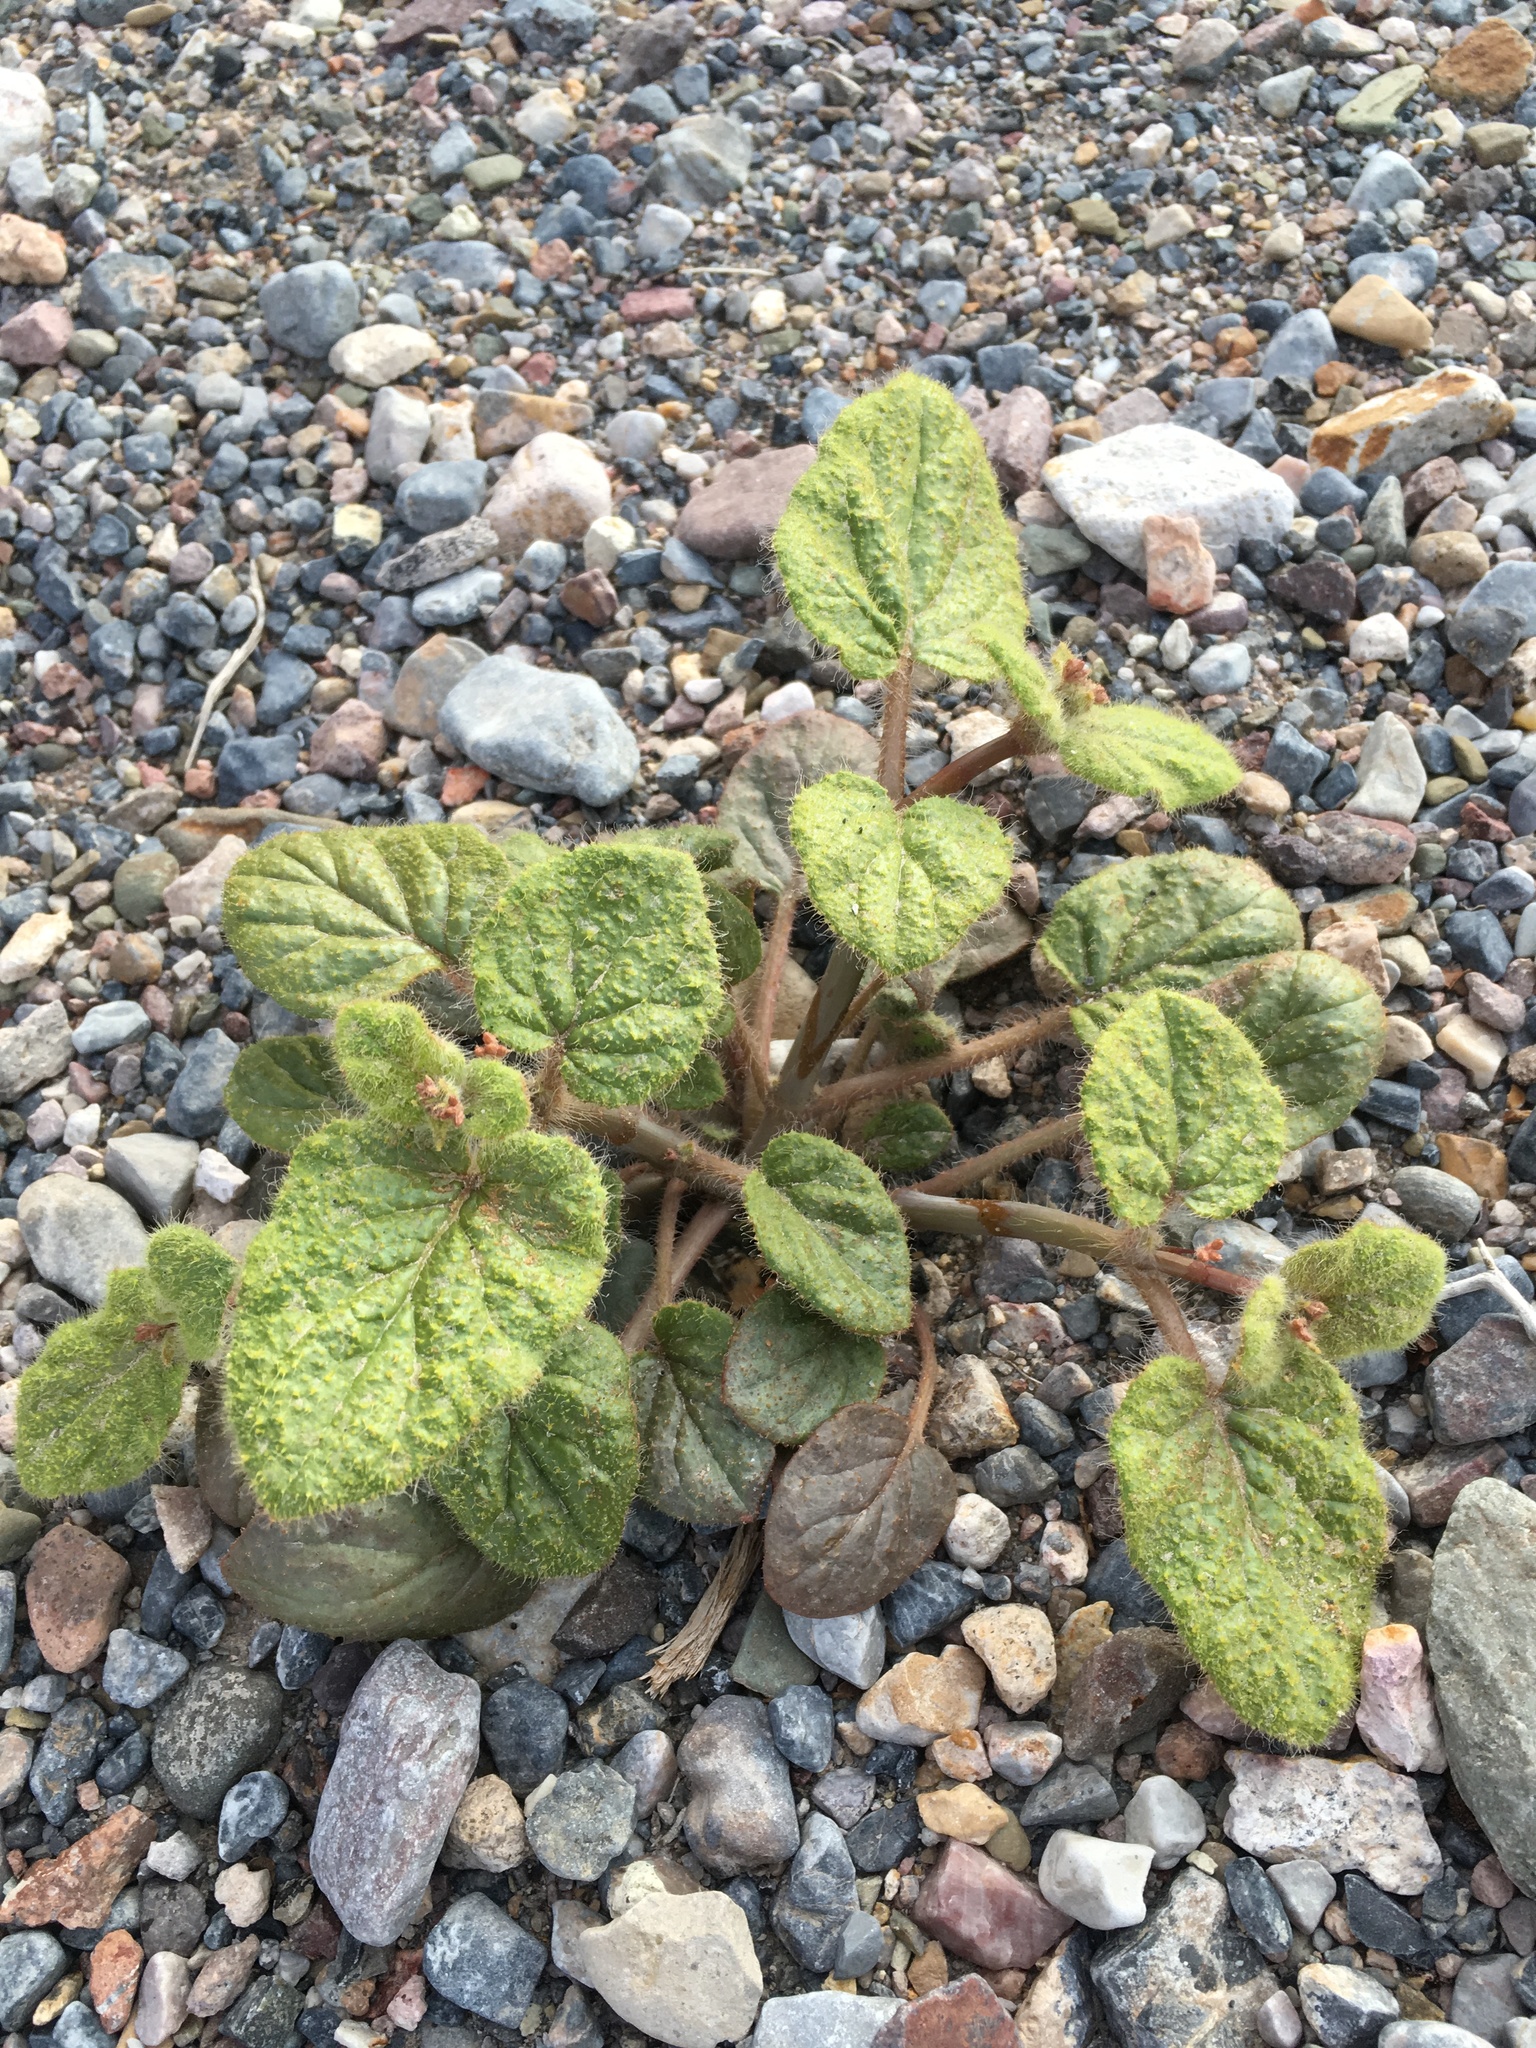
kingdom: Plantae
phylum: Tracheophyta
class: Magnoliopsida
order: Caryophyllales
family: Nyctaginaceae
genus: Anulocaulis
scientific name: Anulocaulis annulatus
